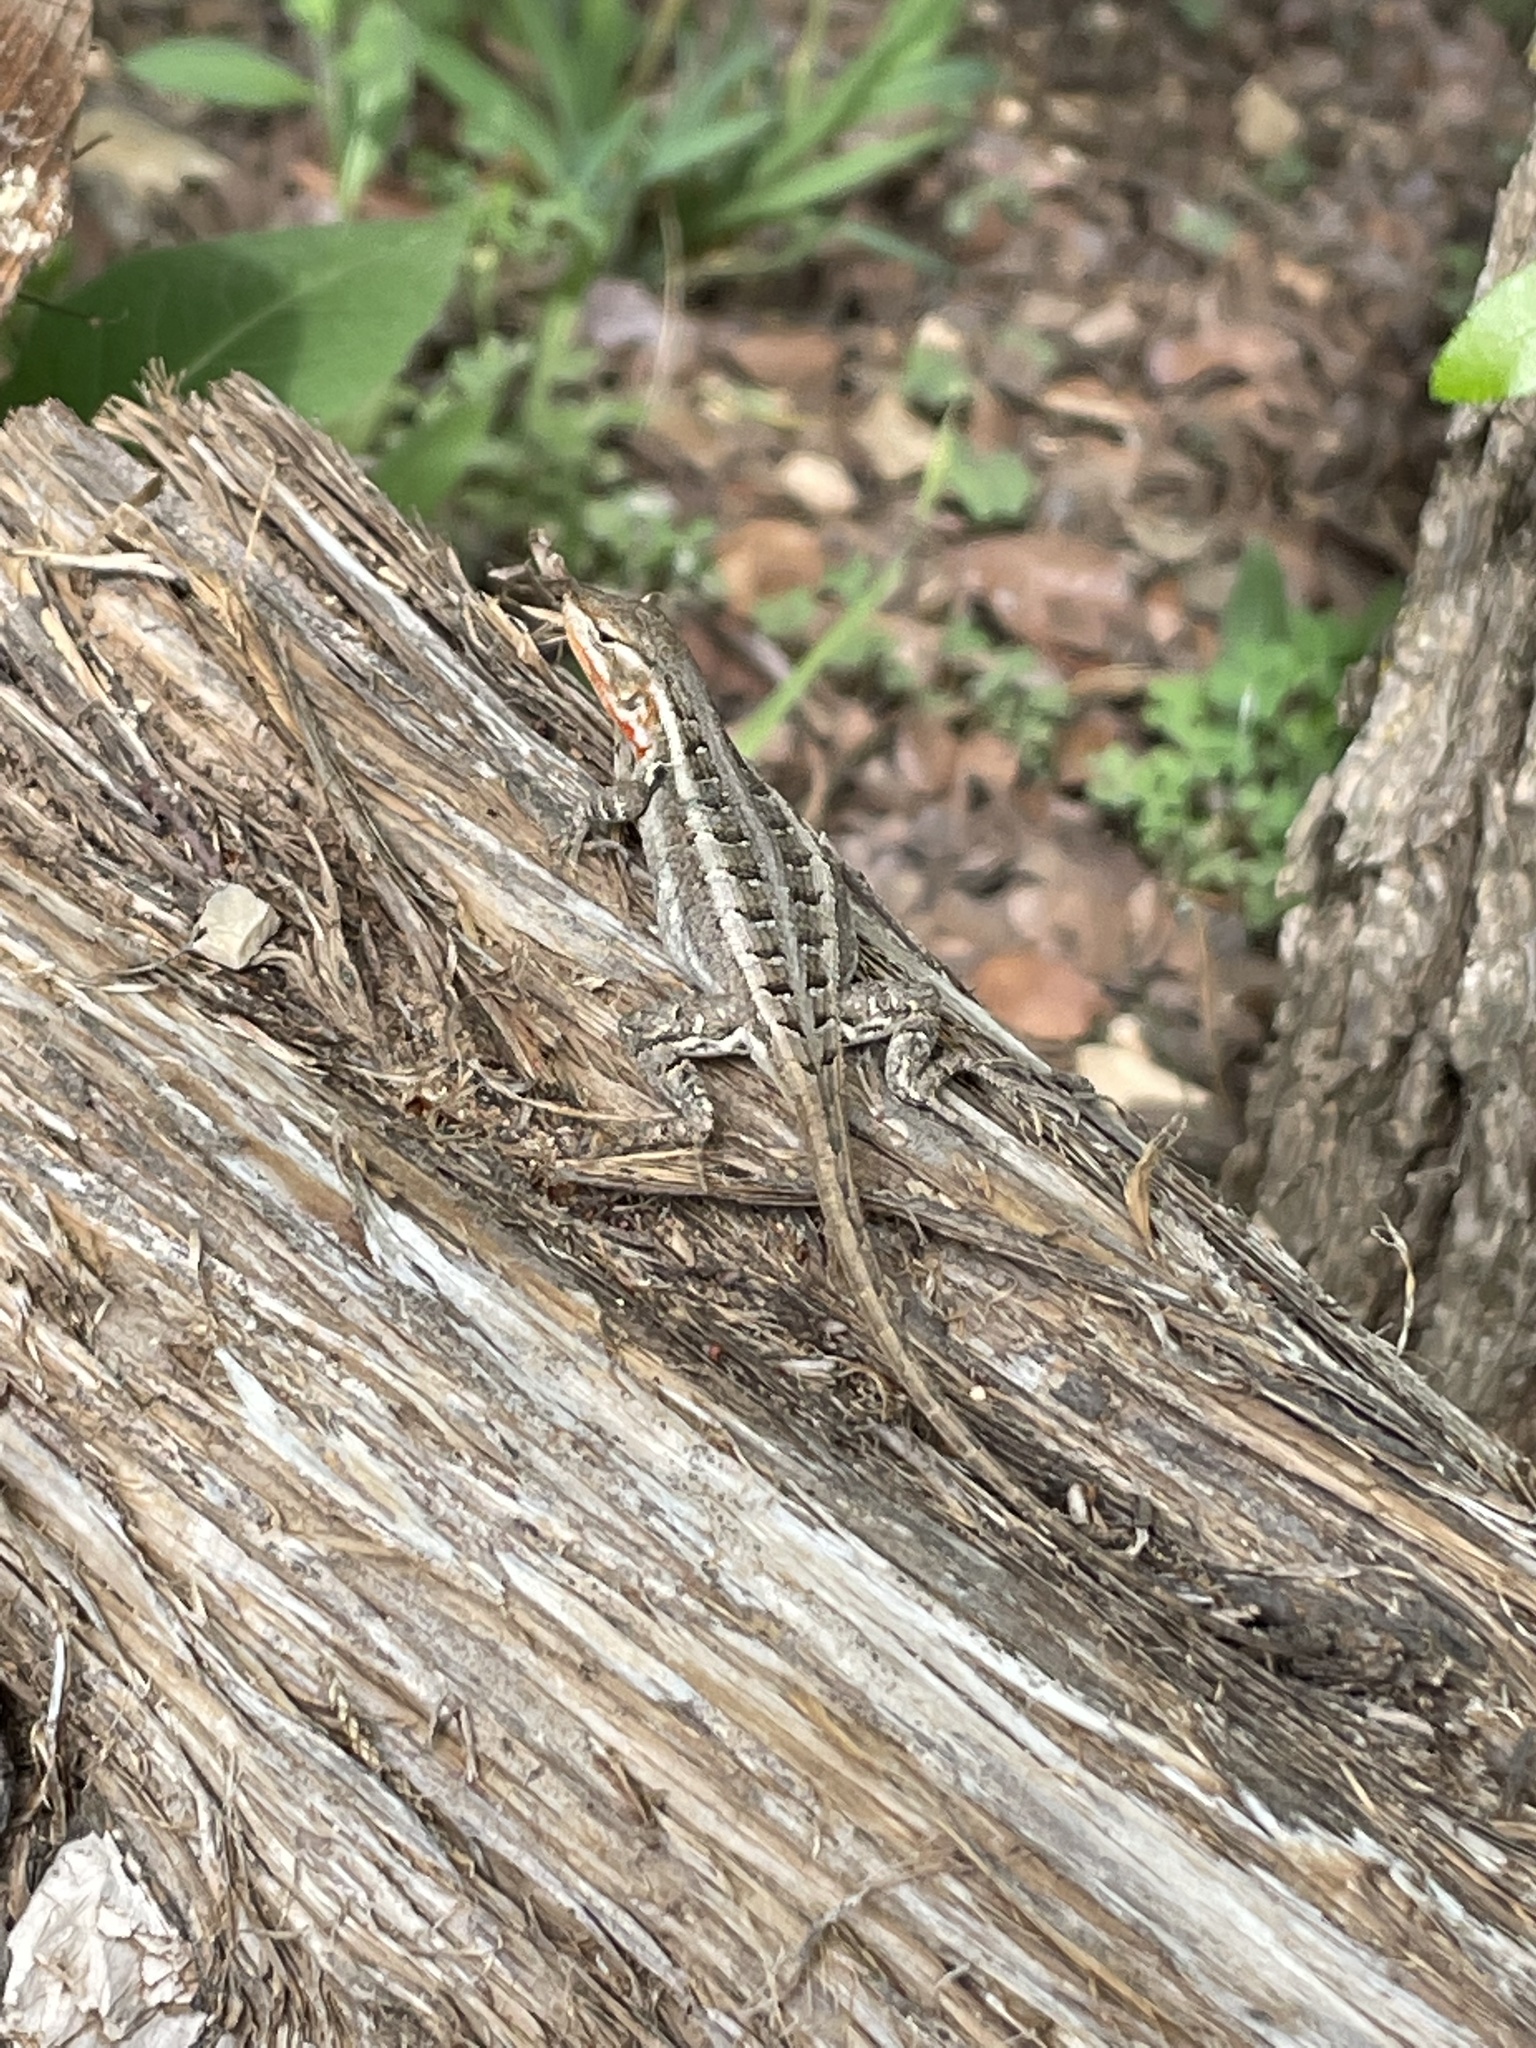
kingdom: Animalia
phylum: Chordata
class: Squamata
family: Phrynosomatidae
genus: Sceloporus
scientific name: Sceloporus variabilis
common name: Rosebelly lizard
